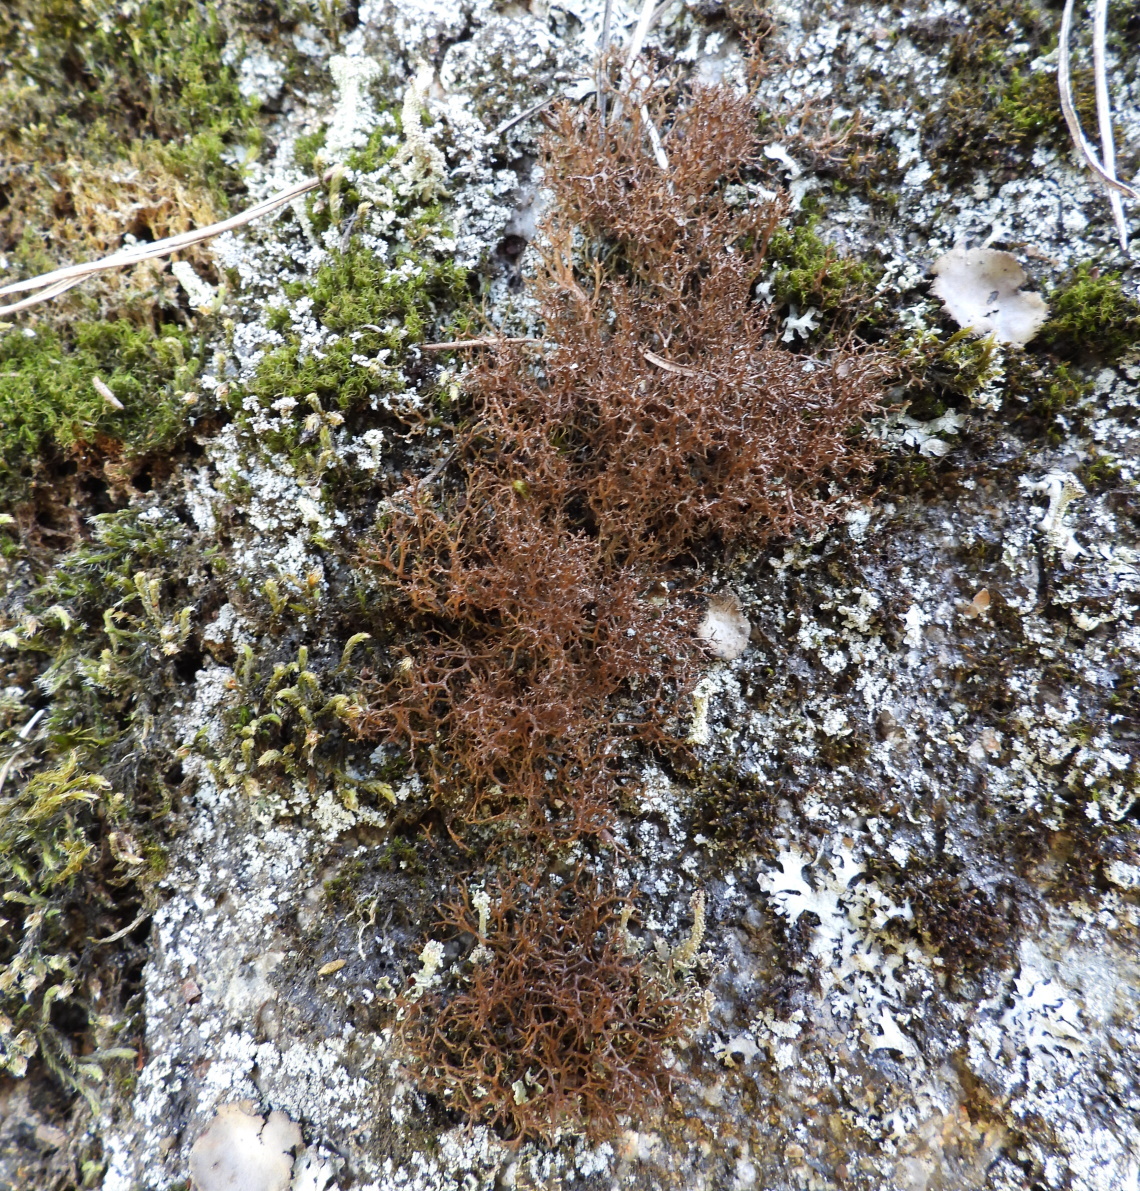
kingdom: Fungi
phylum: Ascomycota
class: Lecanoromycetes
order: Lecanorales
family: Parmeliaceae
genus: Cetraria
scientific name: Cetraria muricata
